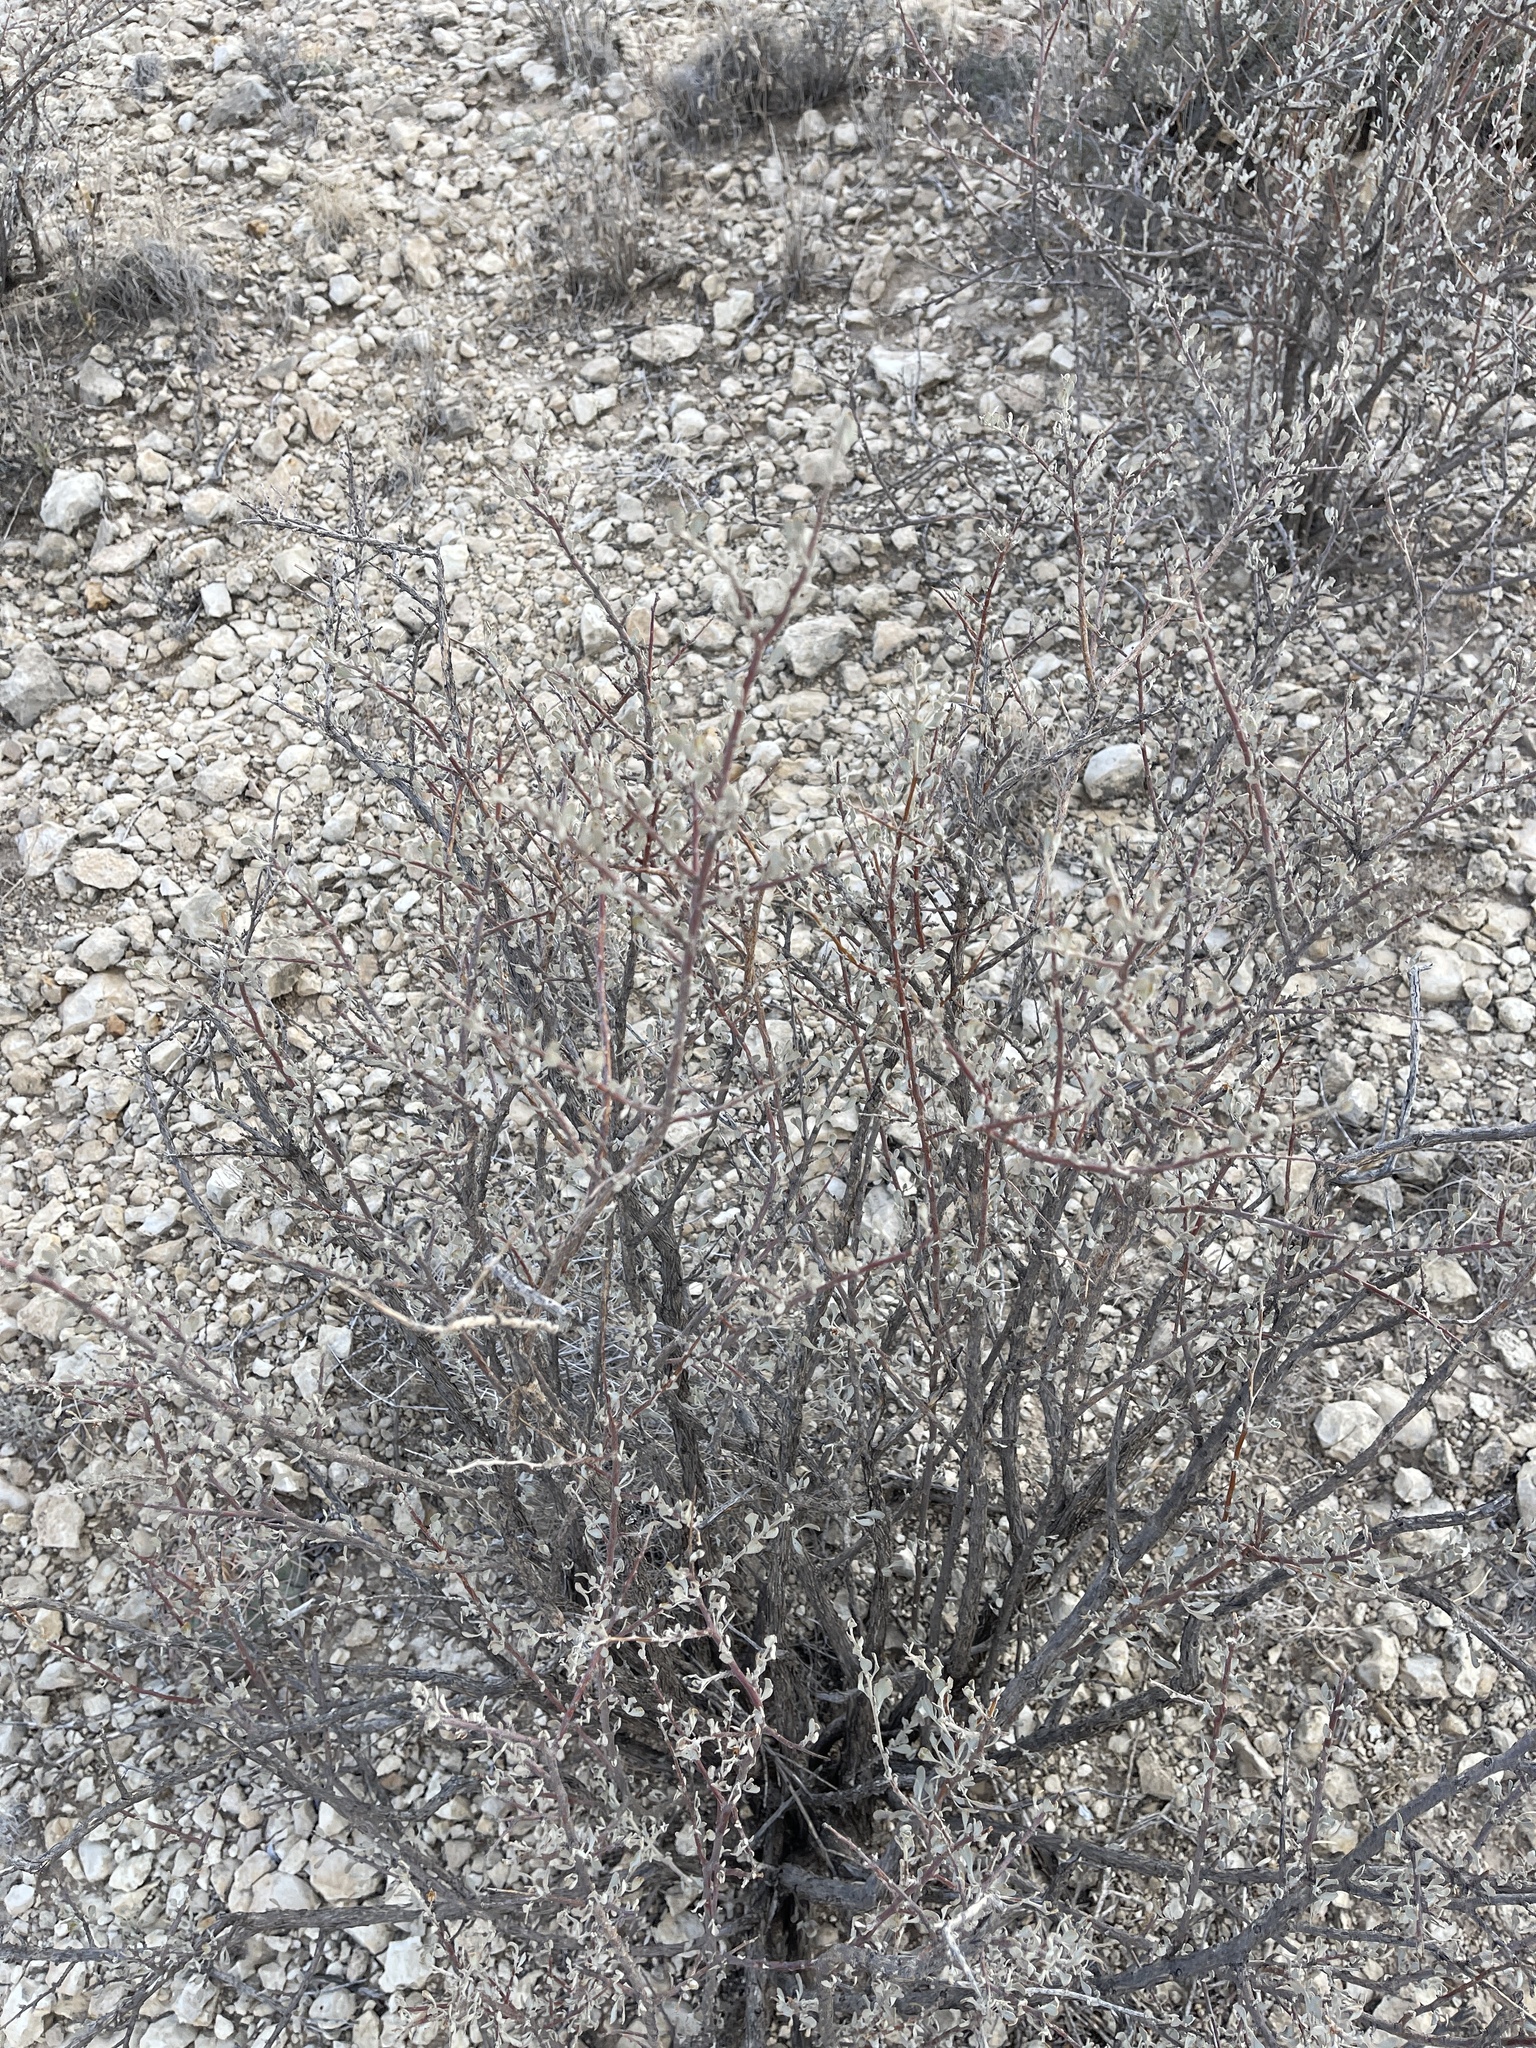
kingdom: Plantae
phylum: Tracheophyta
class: Magnoliopsida
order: Lamiales
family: Scrophulariaceae
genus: Leucophyllum
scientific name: Leucophyllum minus
